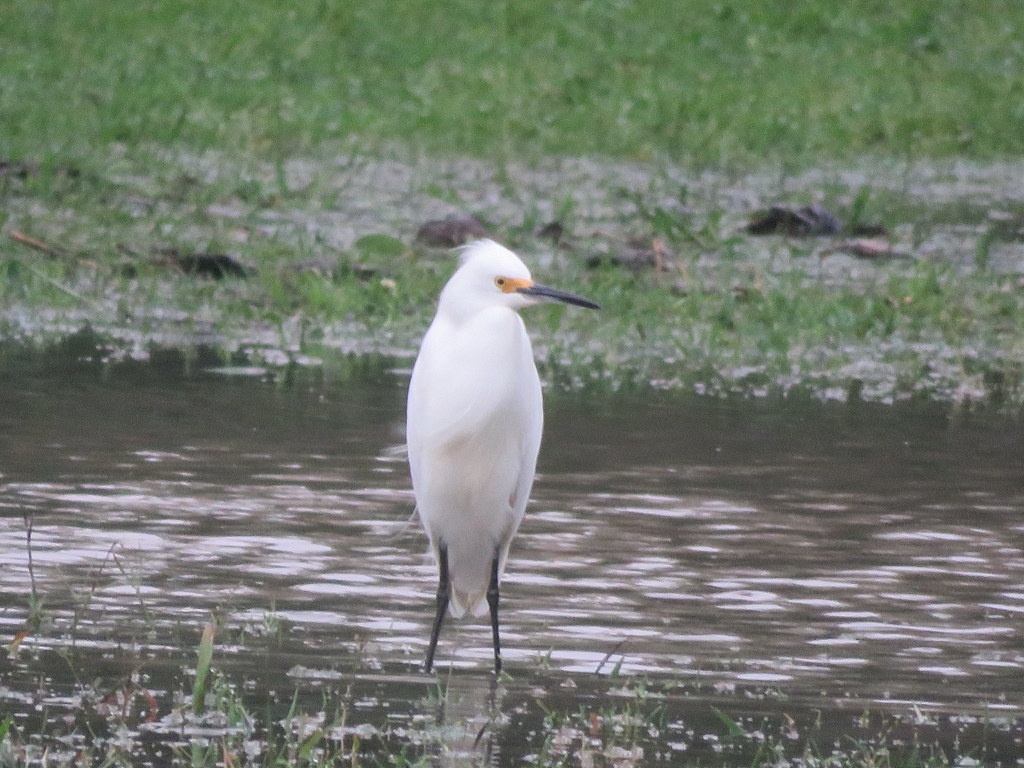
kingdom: Animalia
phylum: Chordata
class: Aves
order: Pelecaniformes
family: Ardeidae
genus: Egretta
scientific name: Egretta thula
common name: Snowy egret
